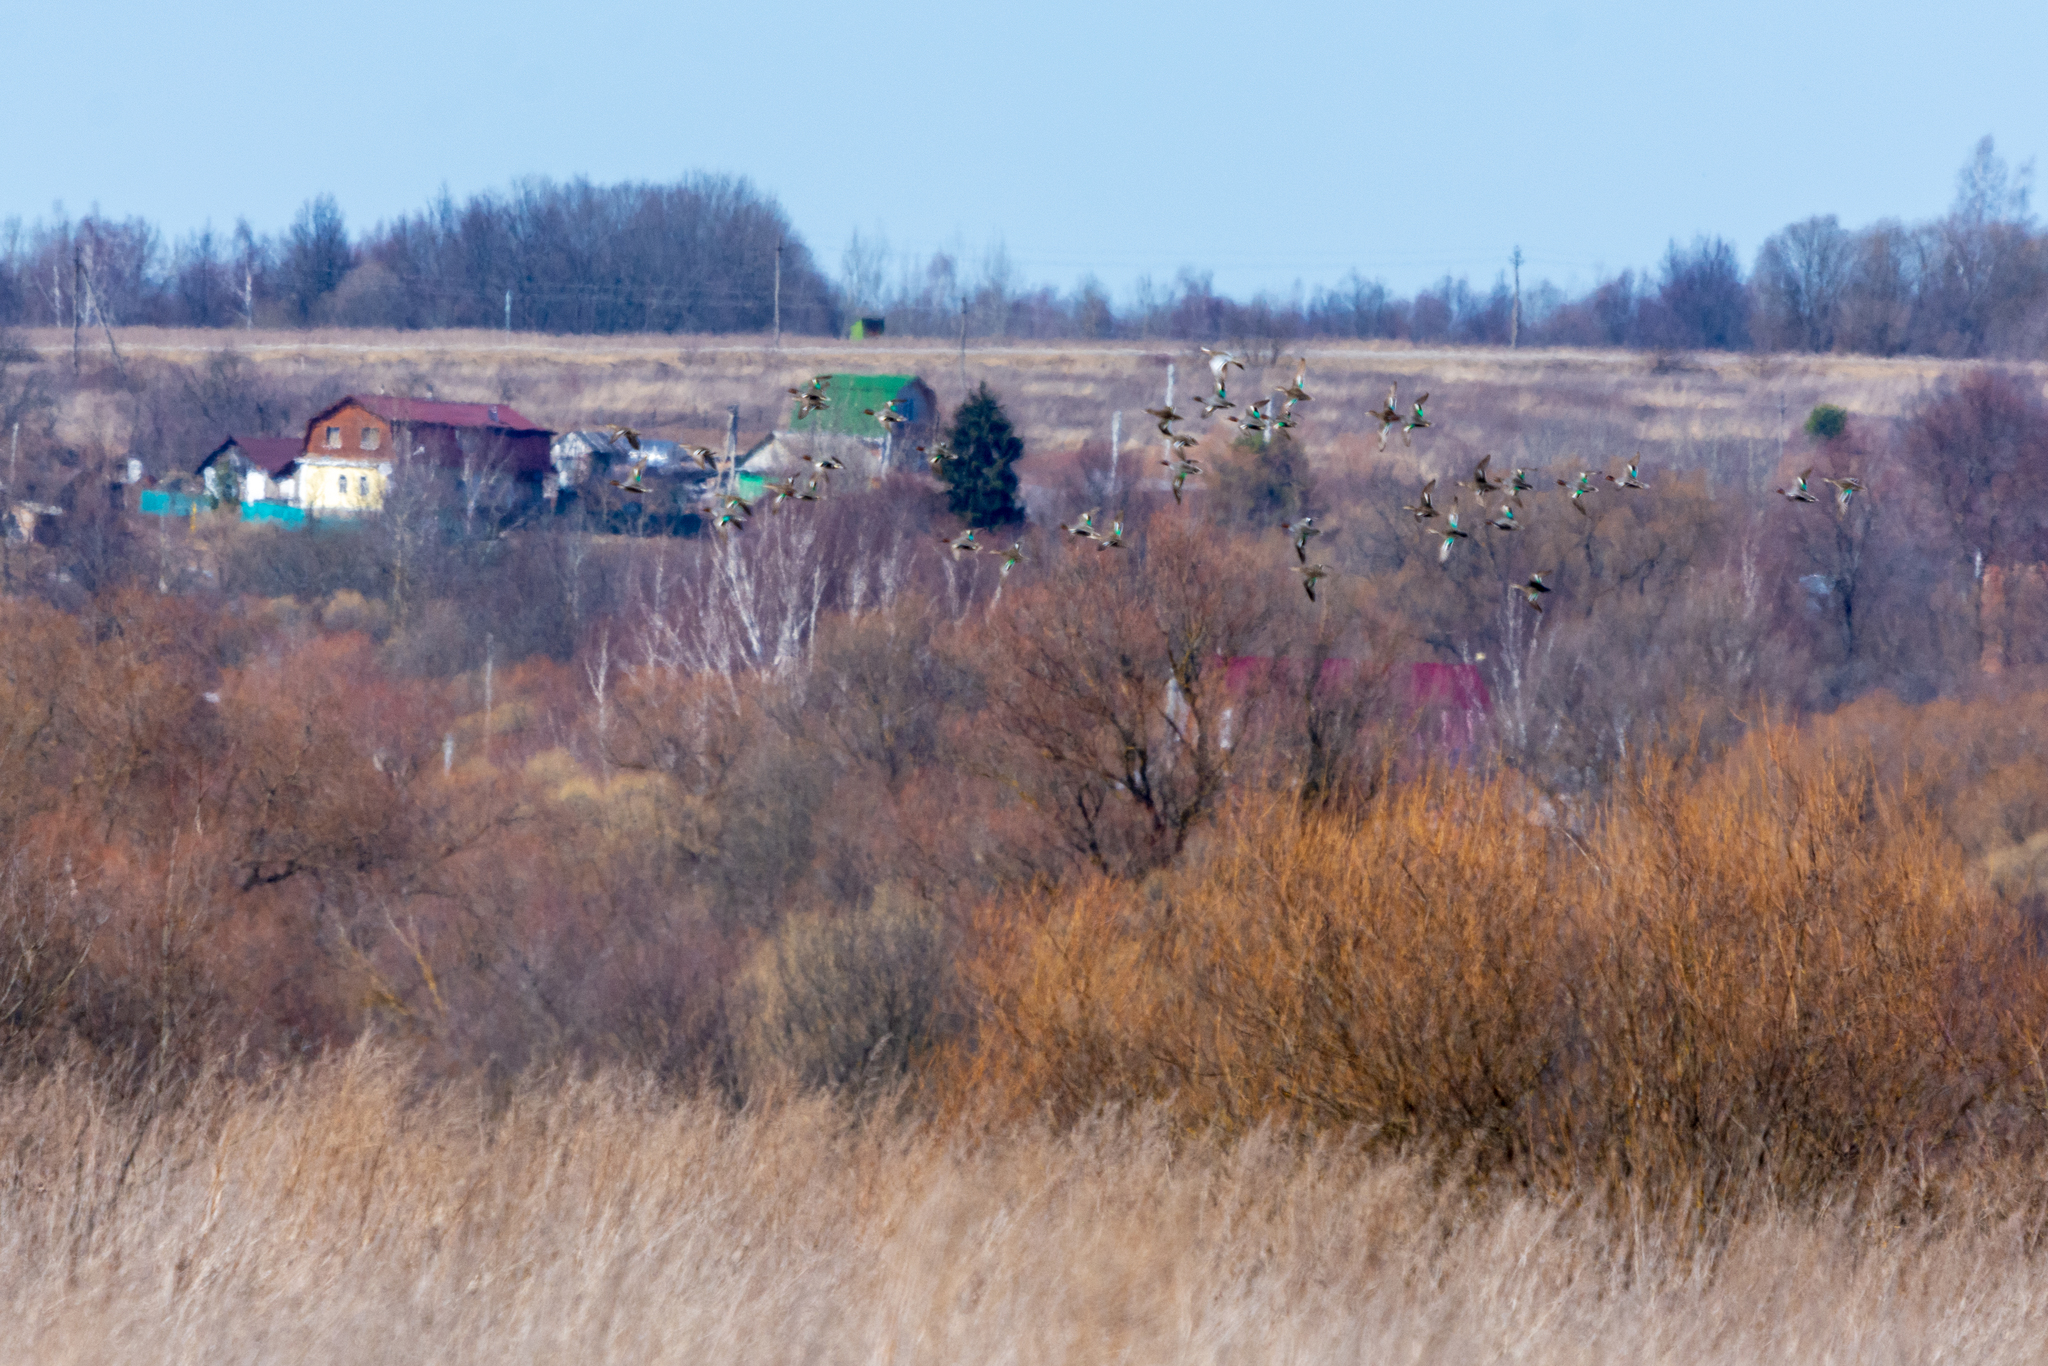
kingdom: Animalia
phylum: Chordata
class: Aves
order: Anseriformes
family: Anatidae
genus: Anas
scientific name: Anas crecca
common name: Eurasian teal
